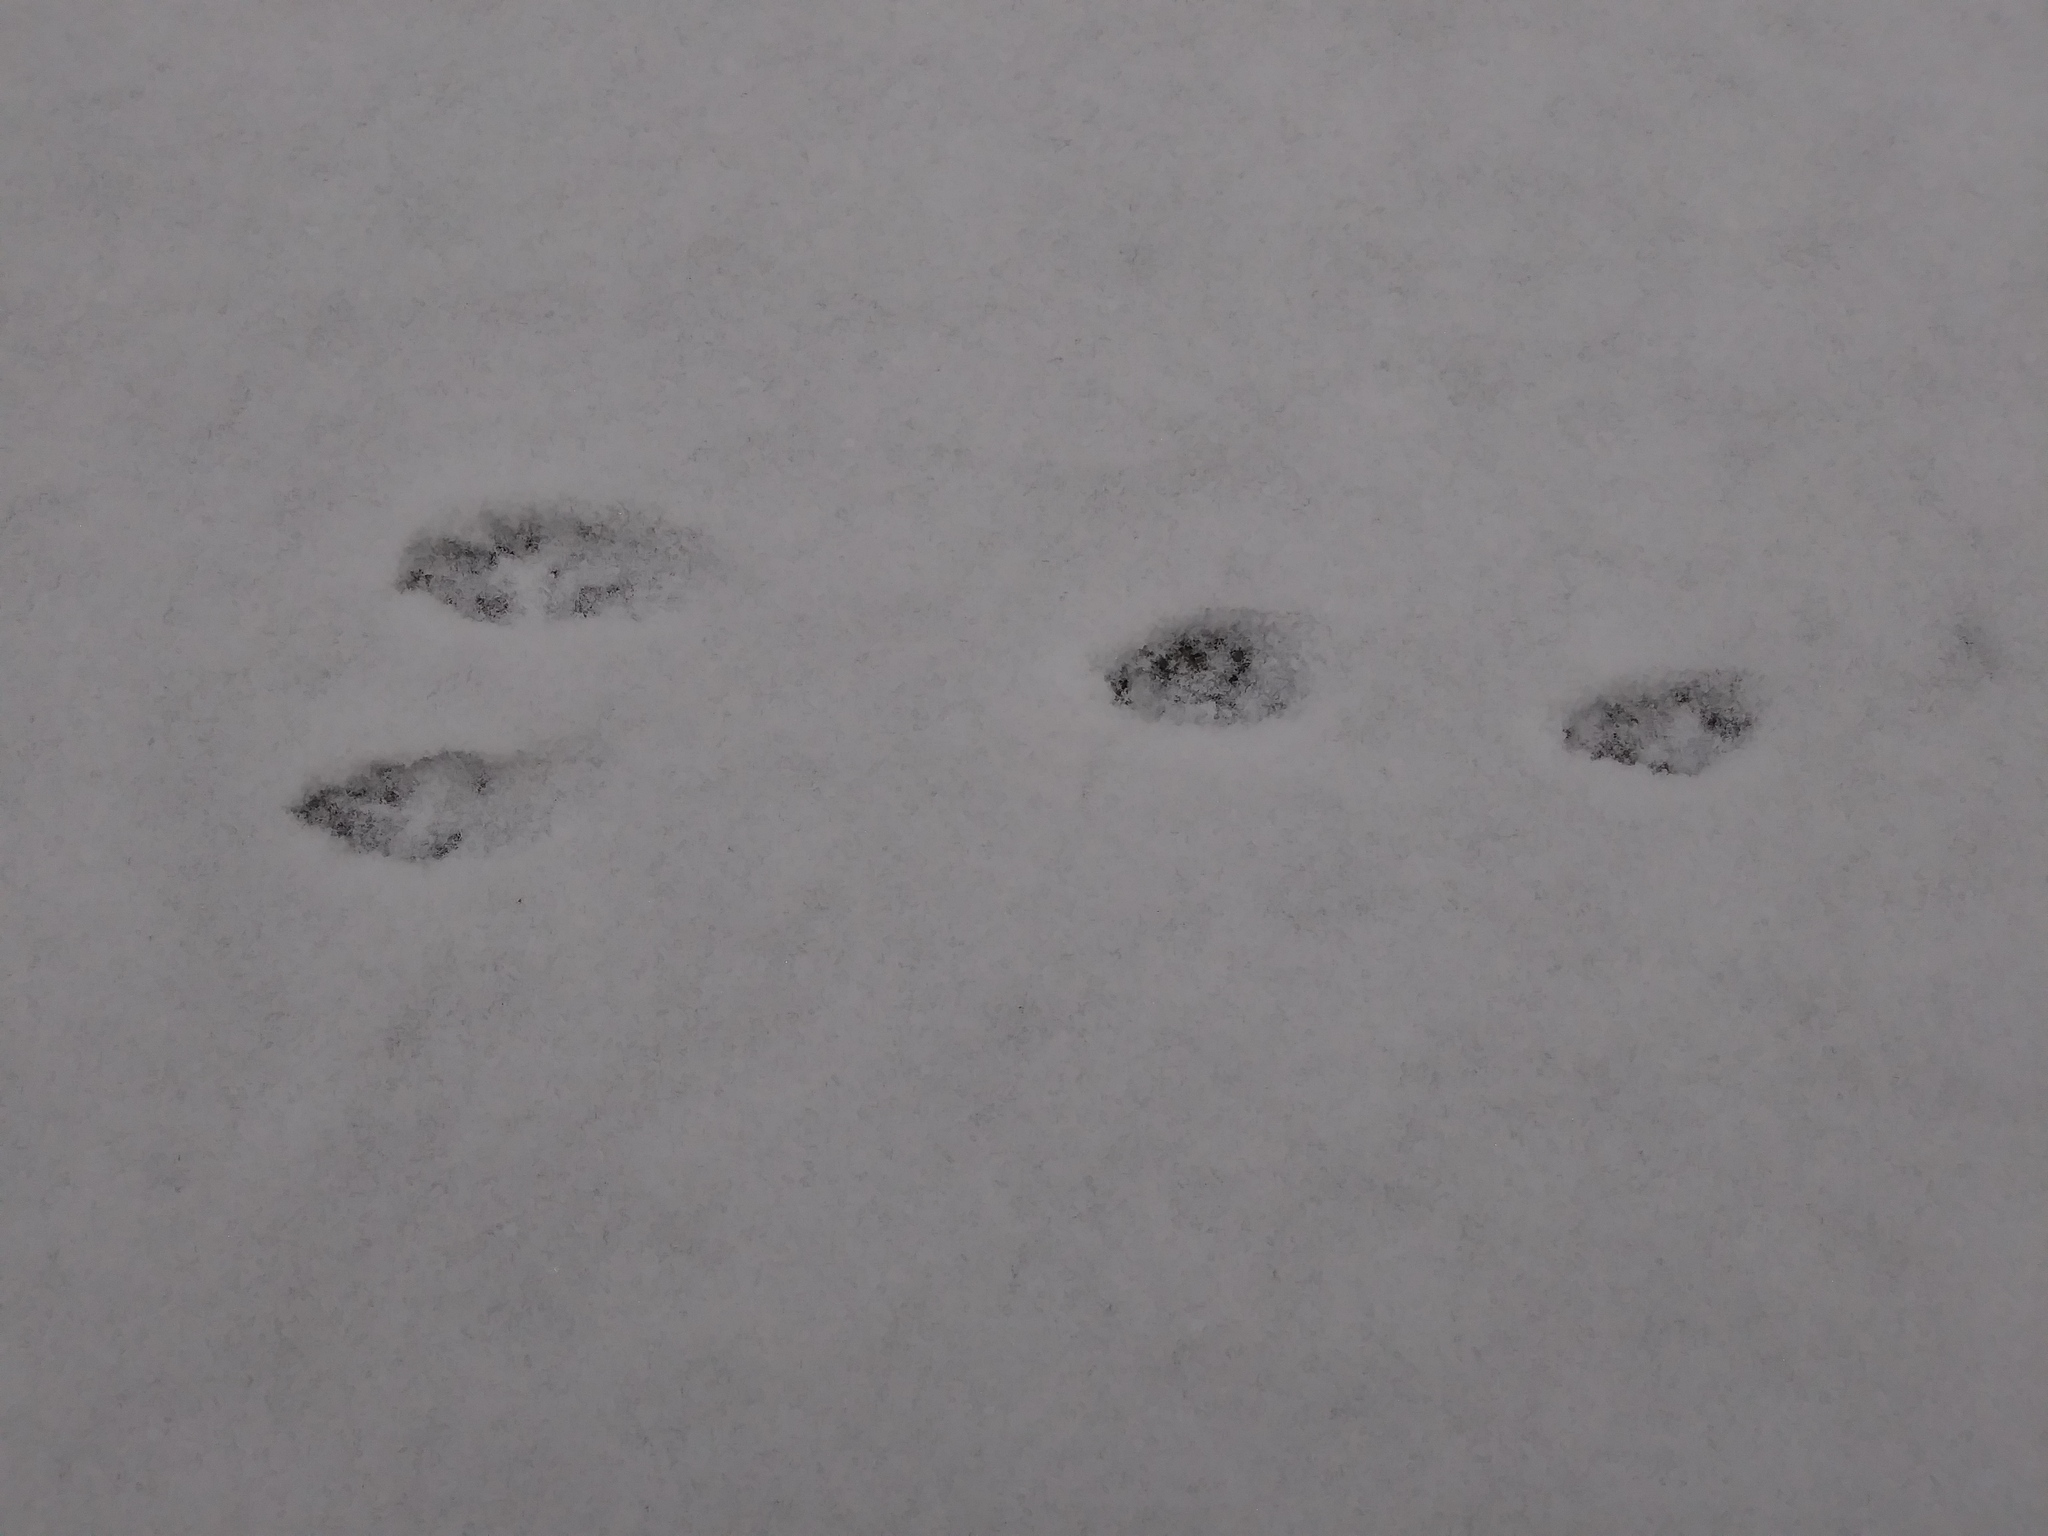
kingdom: Animalia
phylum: Chordata
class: Mammalia
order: Lagomorpha
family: Leporidae
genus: Sylvilagus
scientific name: Sylvilagus floridanus
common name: Eastern cottontail
